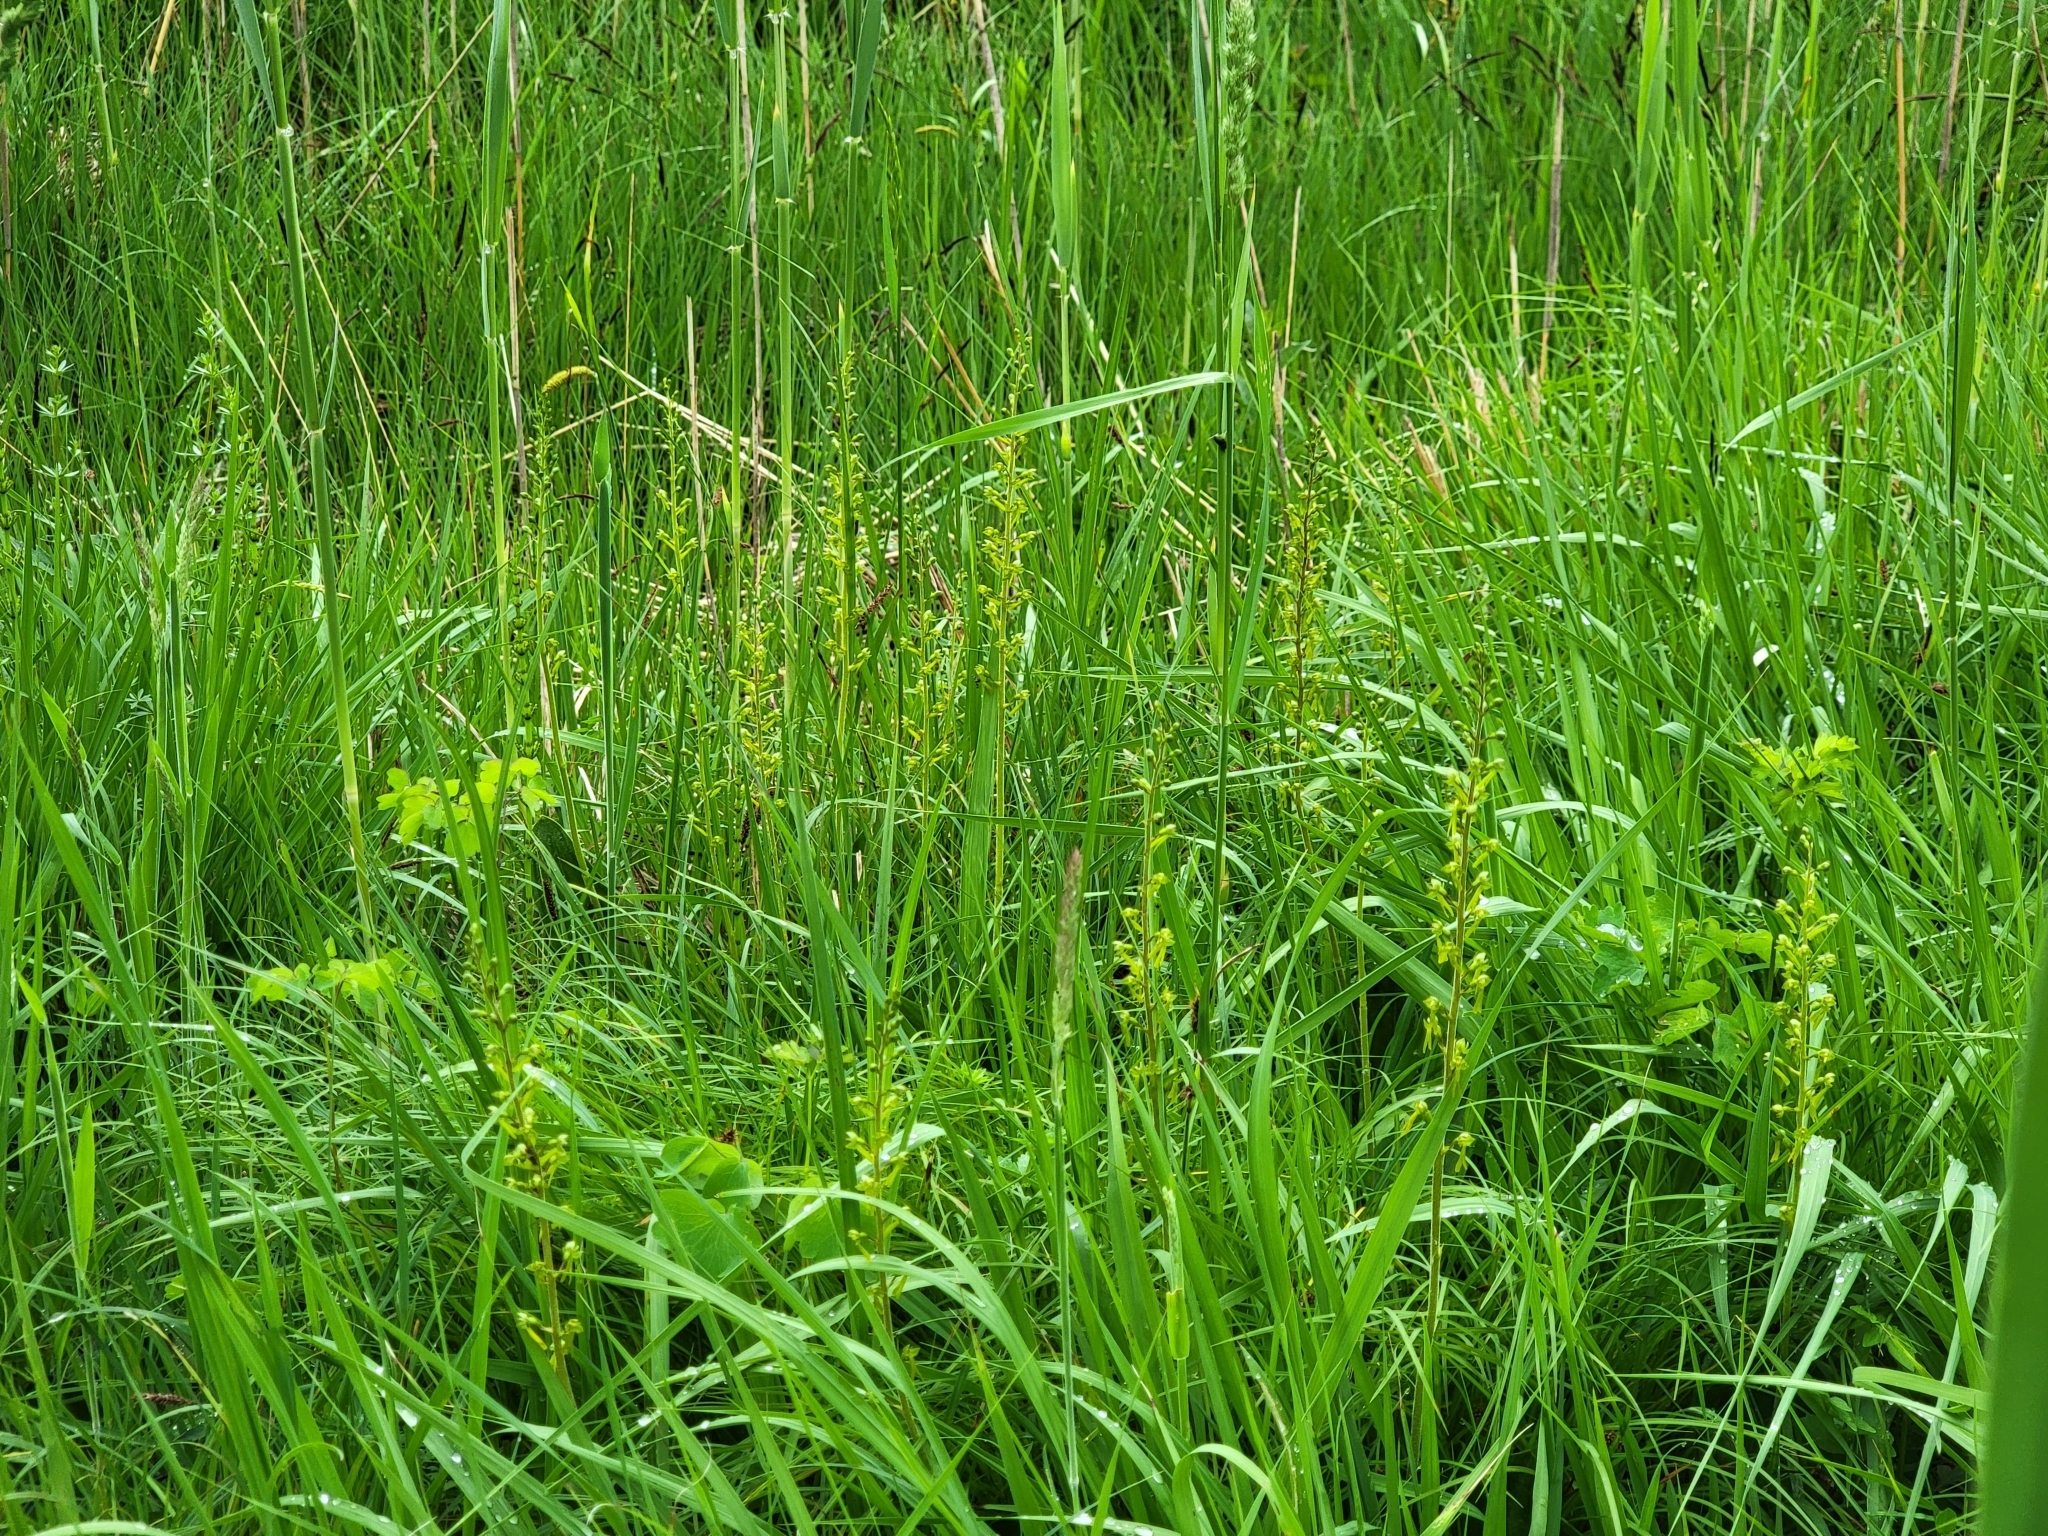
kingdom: Plantae
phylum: Tracheophyta
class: Liliopsida
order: Asparagales
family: Orchidaceae
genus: Neottia
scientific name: Neottia ovata
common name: Common twayblade
